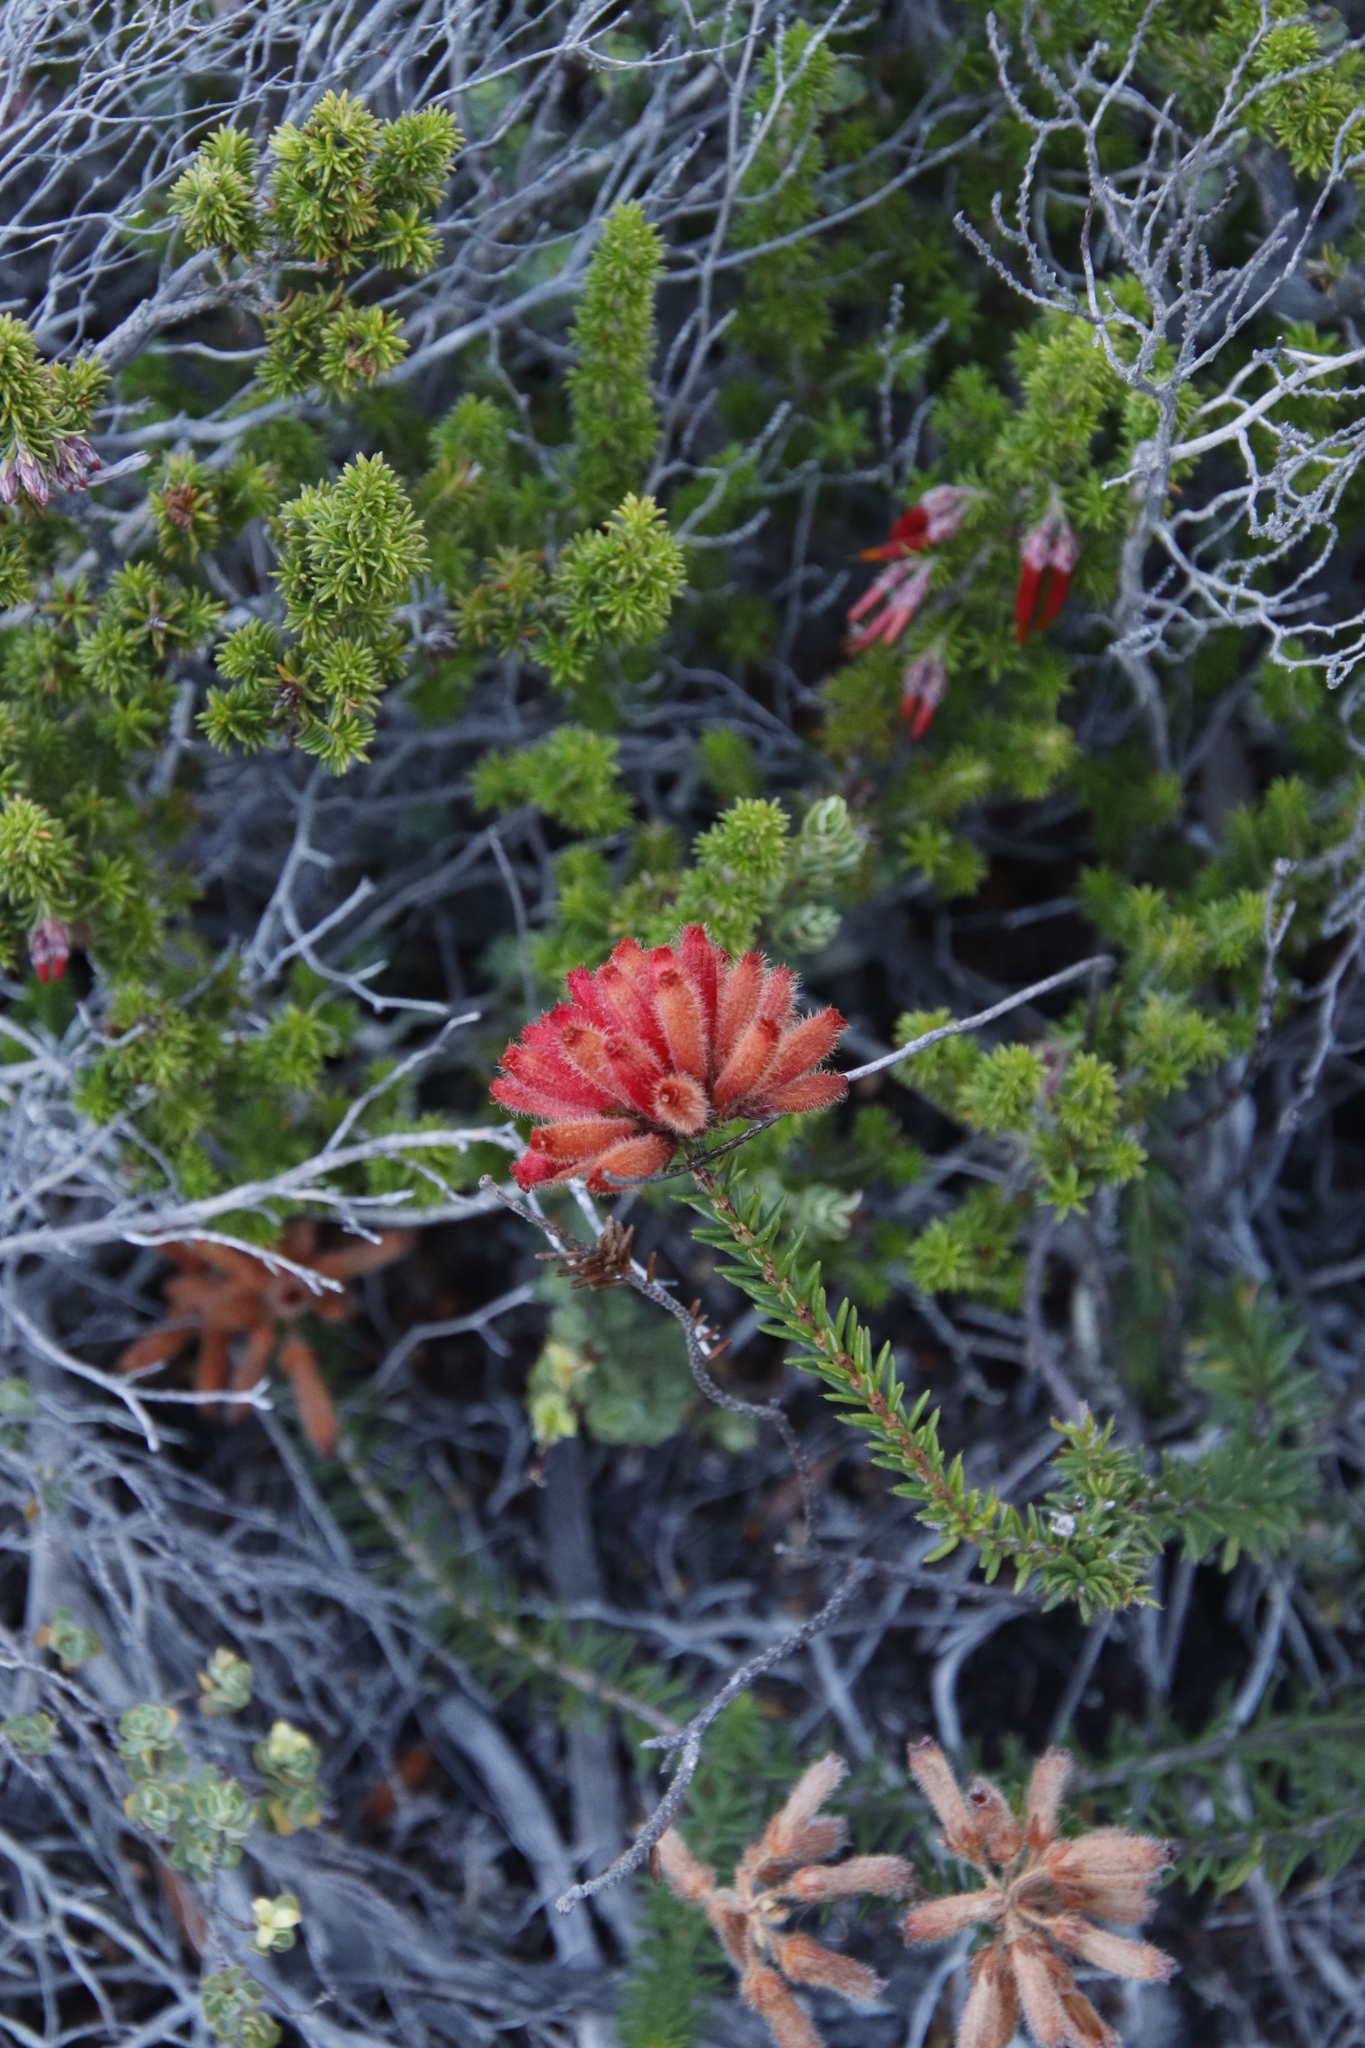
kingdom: Plantae
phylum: Tracheophyta
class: Magnoliopsida
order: Ericales
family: Ericaceae
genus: Erica
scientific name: Erica cerinthoides
